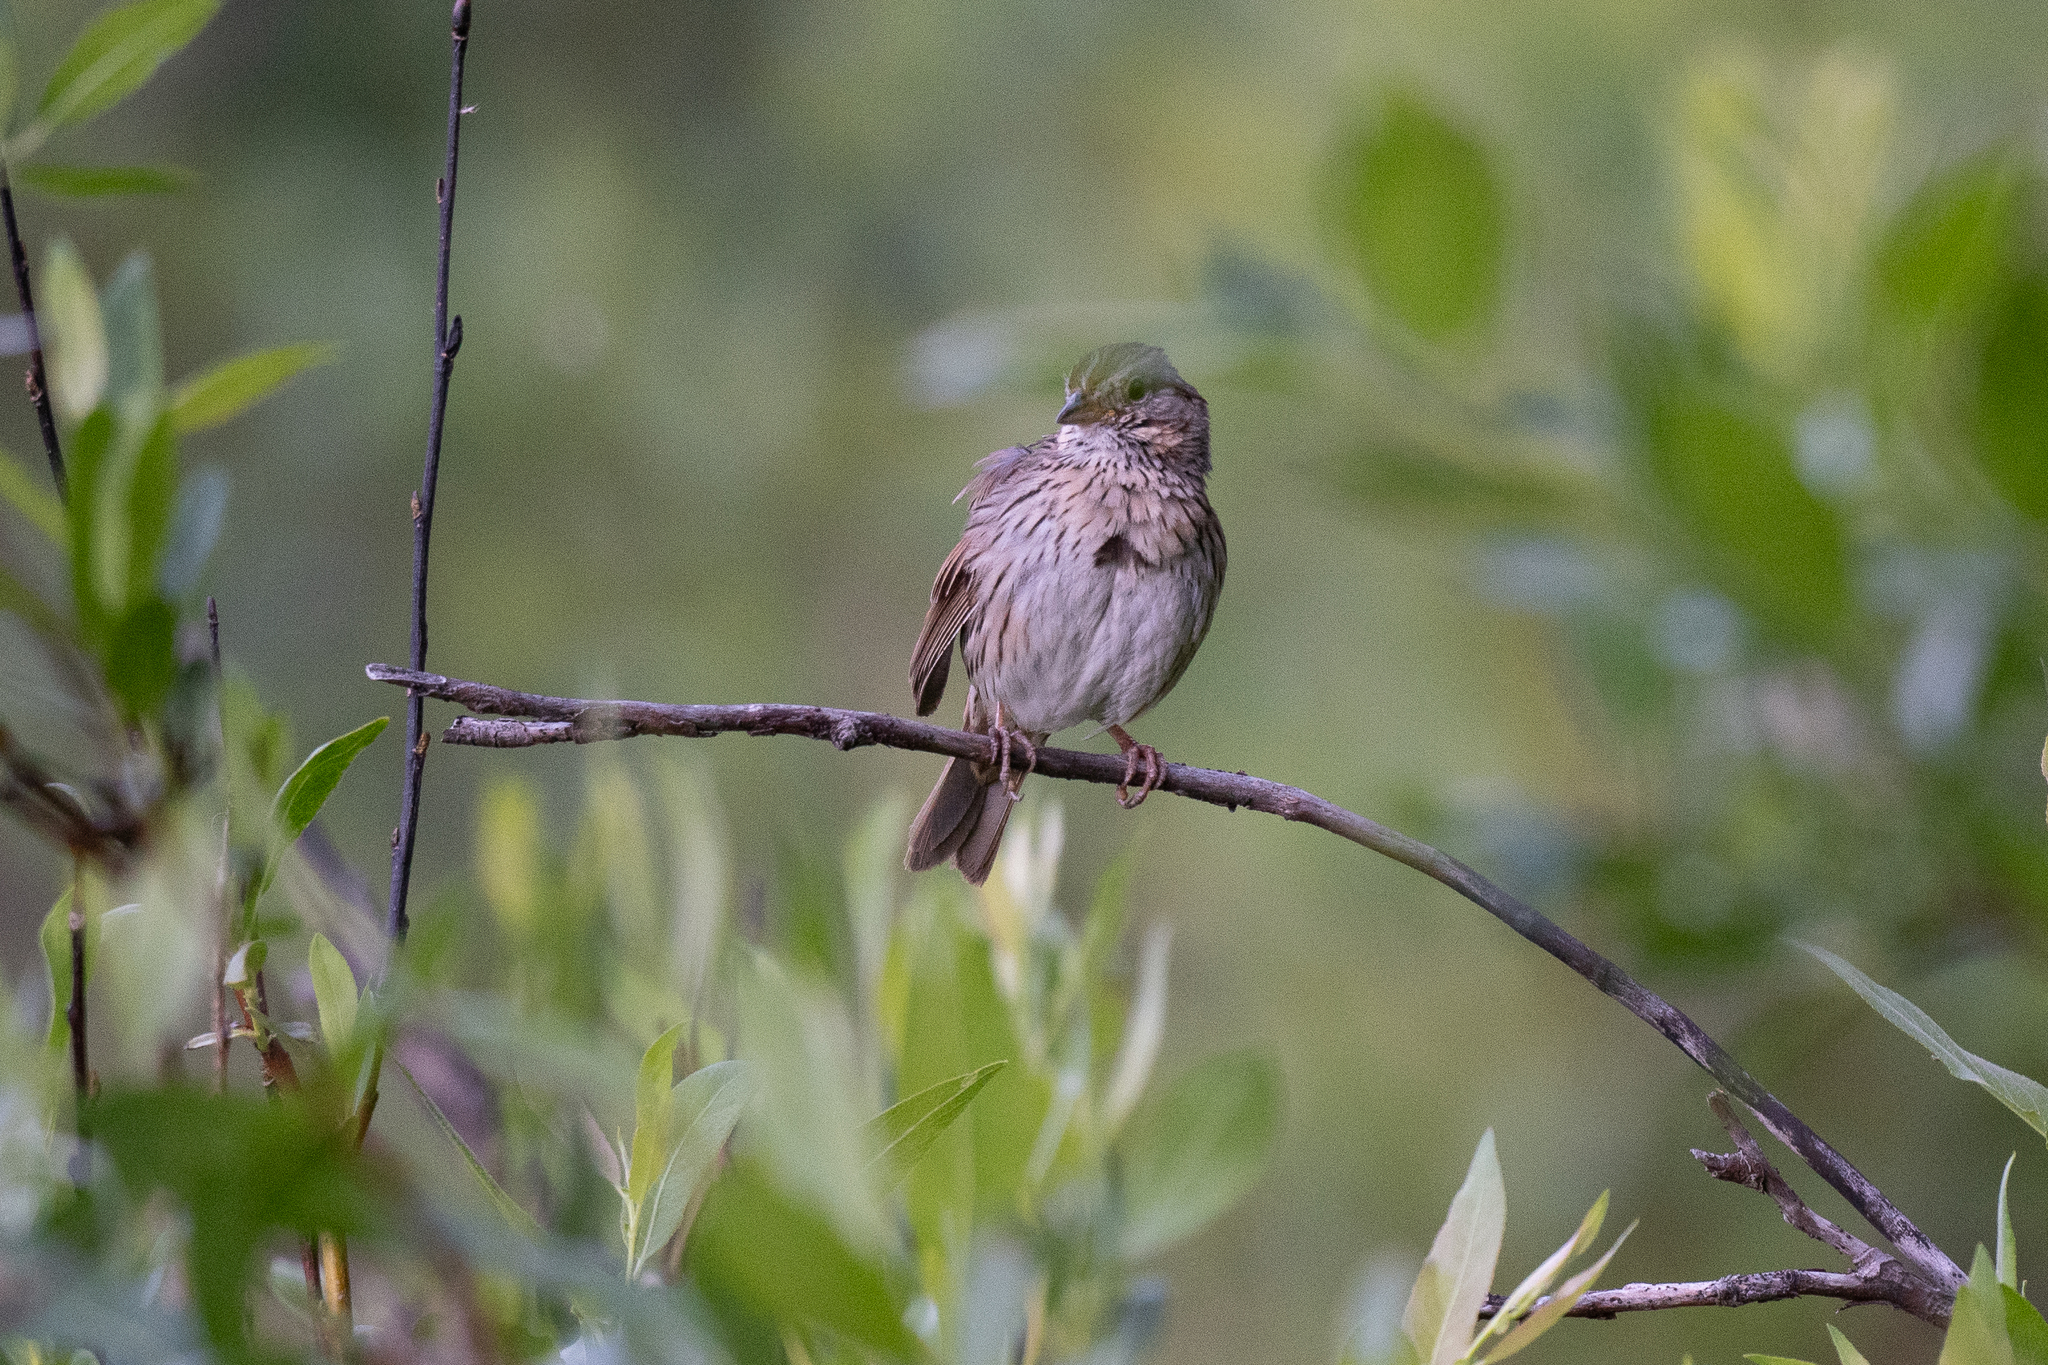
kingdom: Animalia
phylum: Chordata
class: Aves
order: Passeriformes
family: Passerellidae
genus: Melospiza
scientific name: Melospiza lincolnii
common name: Lincoln's sparrow
